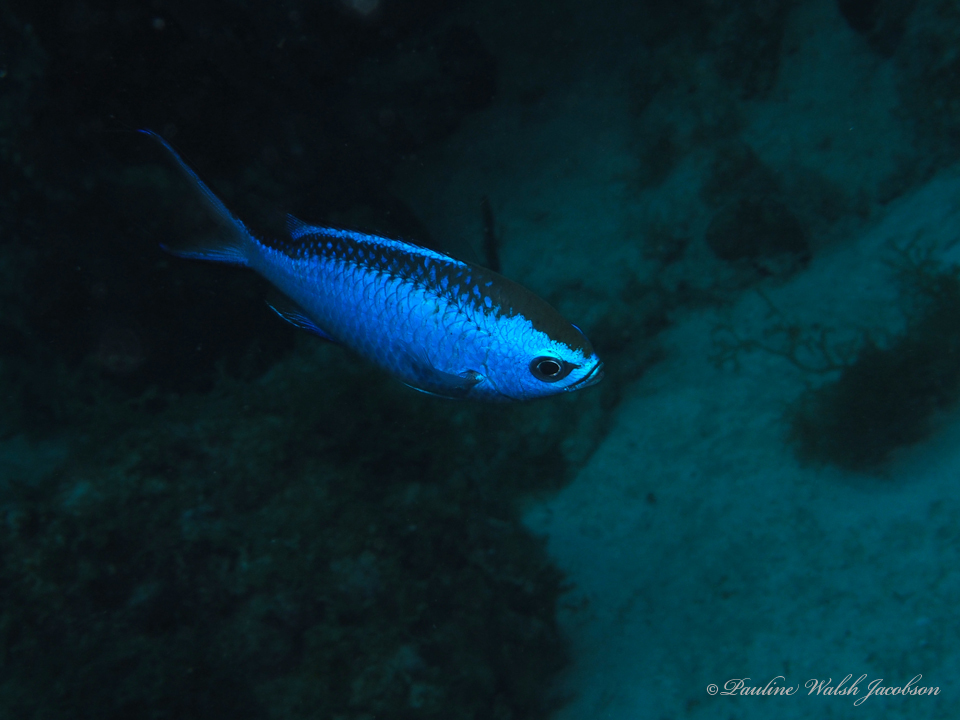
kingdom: Animalia
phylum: Chordata
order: Perciformes
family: Pomacentridae
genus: Chromis
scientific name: Chromis cyanea
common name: Blue chromis
